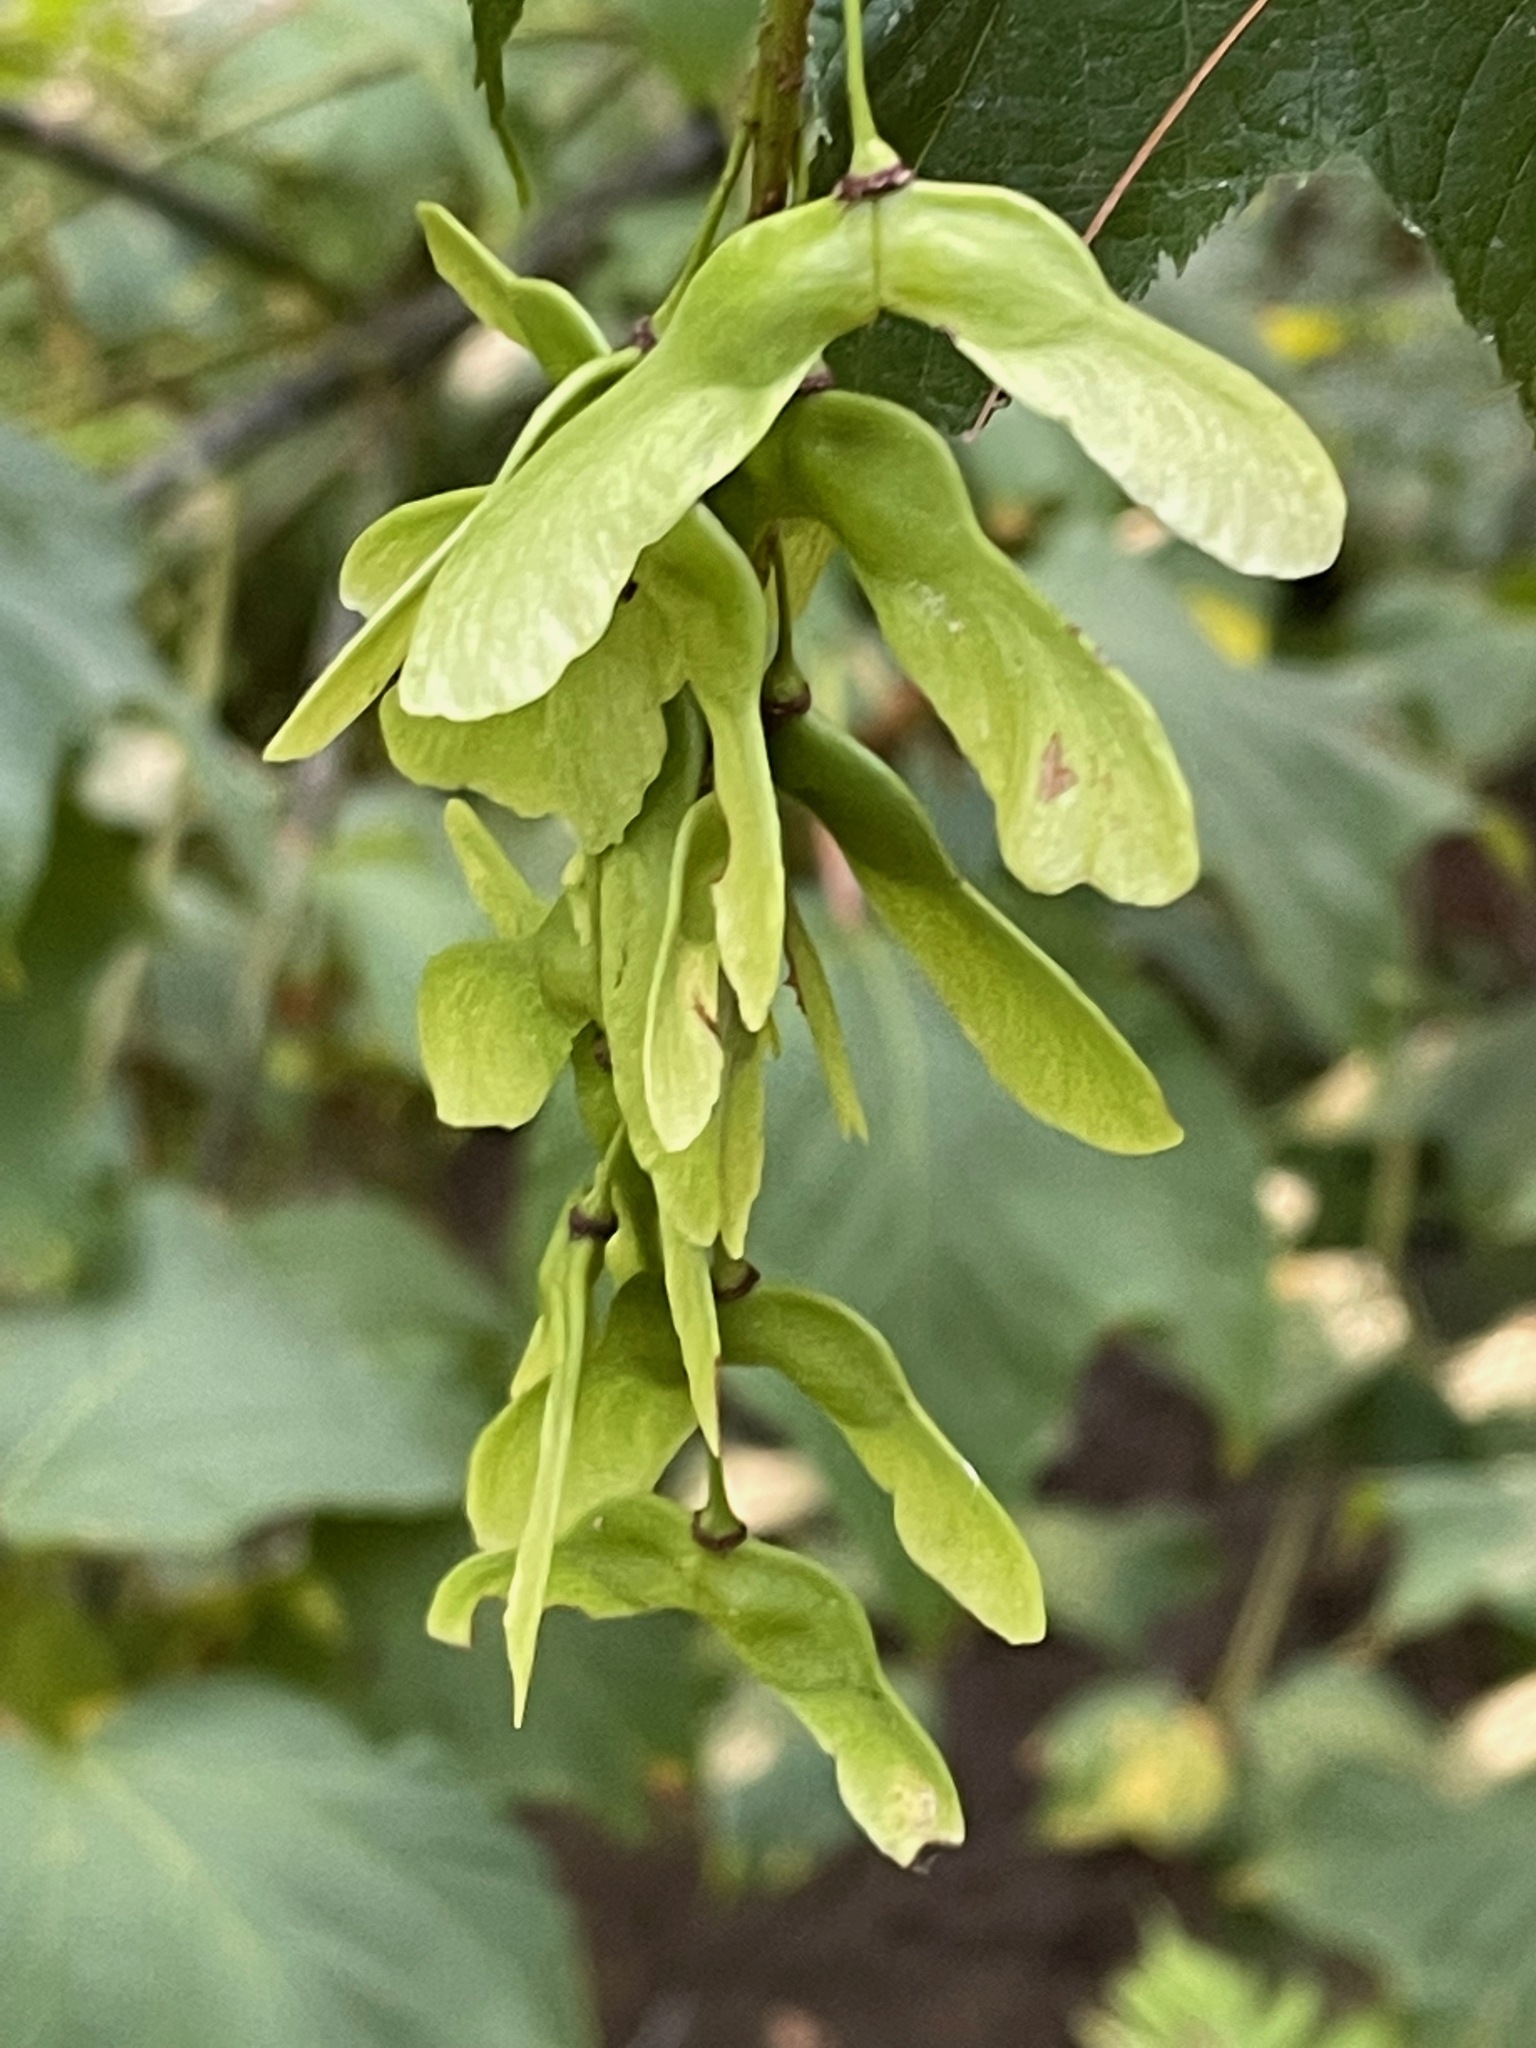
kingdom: Plantae
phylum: Tracheophyta
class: Magnoliopsida
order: Sapindales
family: Sapindaceae
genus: Acer
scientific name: Acer pensylvanicum
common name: Moosewood
